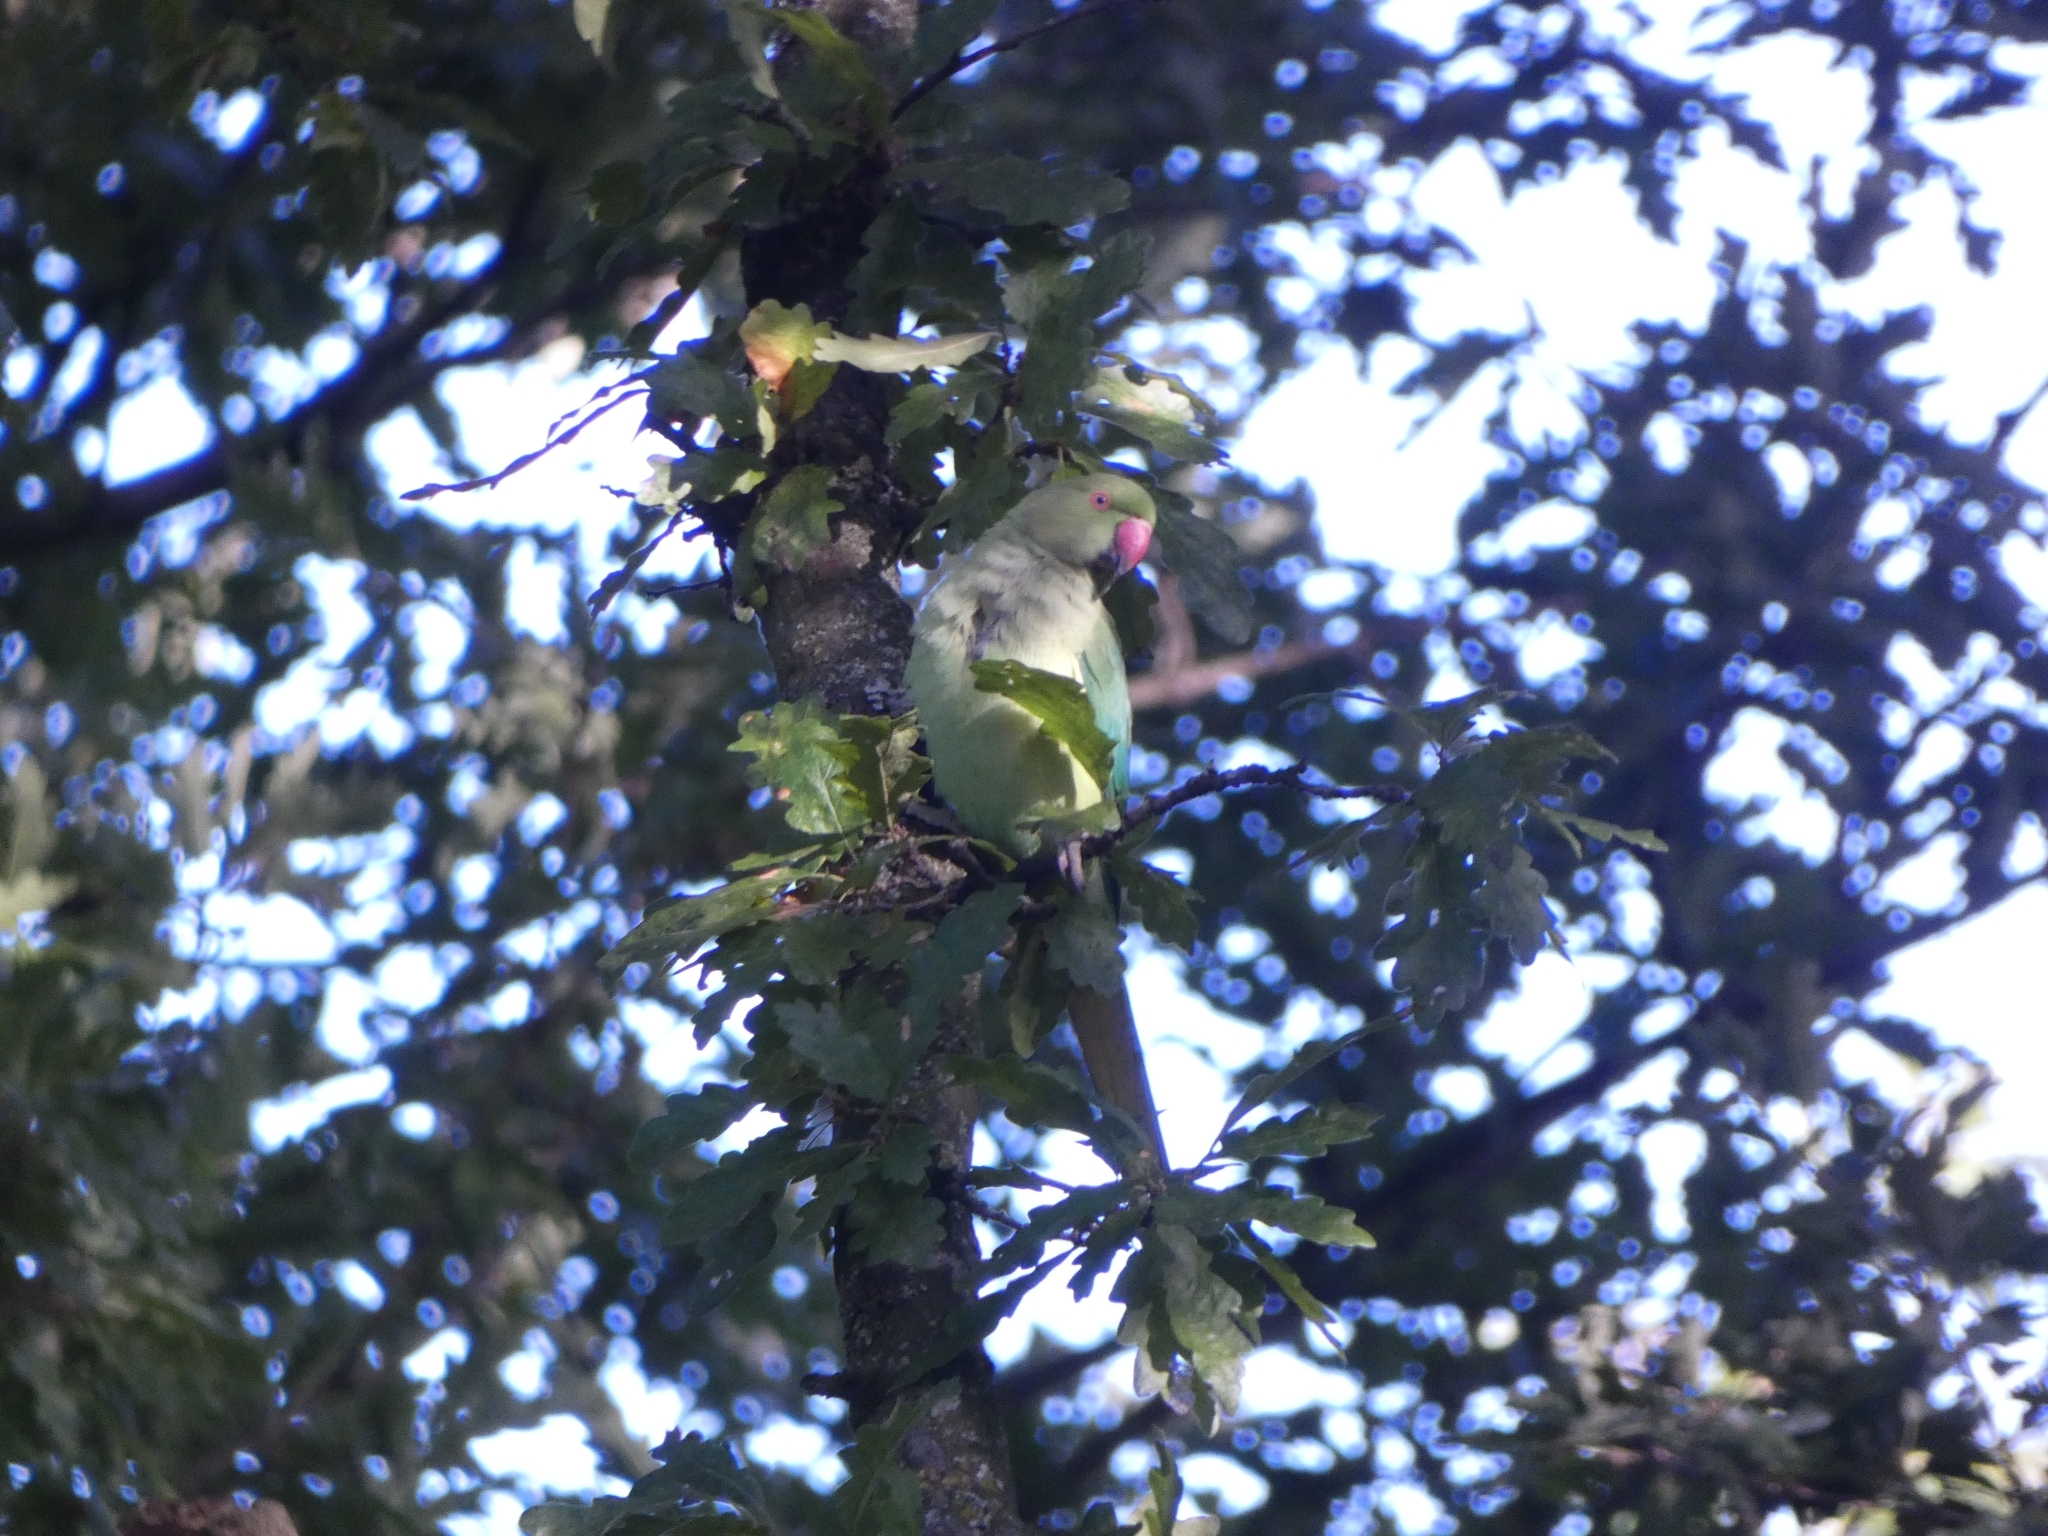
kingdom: Animalia
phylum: Chordata
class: Aves
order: Psittaciformes
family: Psittacidae
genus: Psittacula
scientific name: Psittacula krameri
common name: Rose-ringed parakeet
